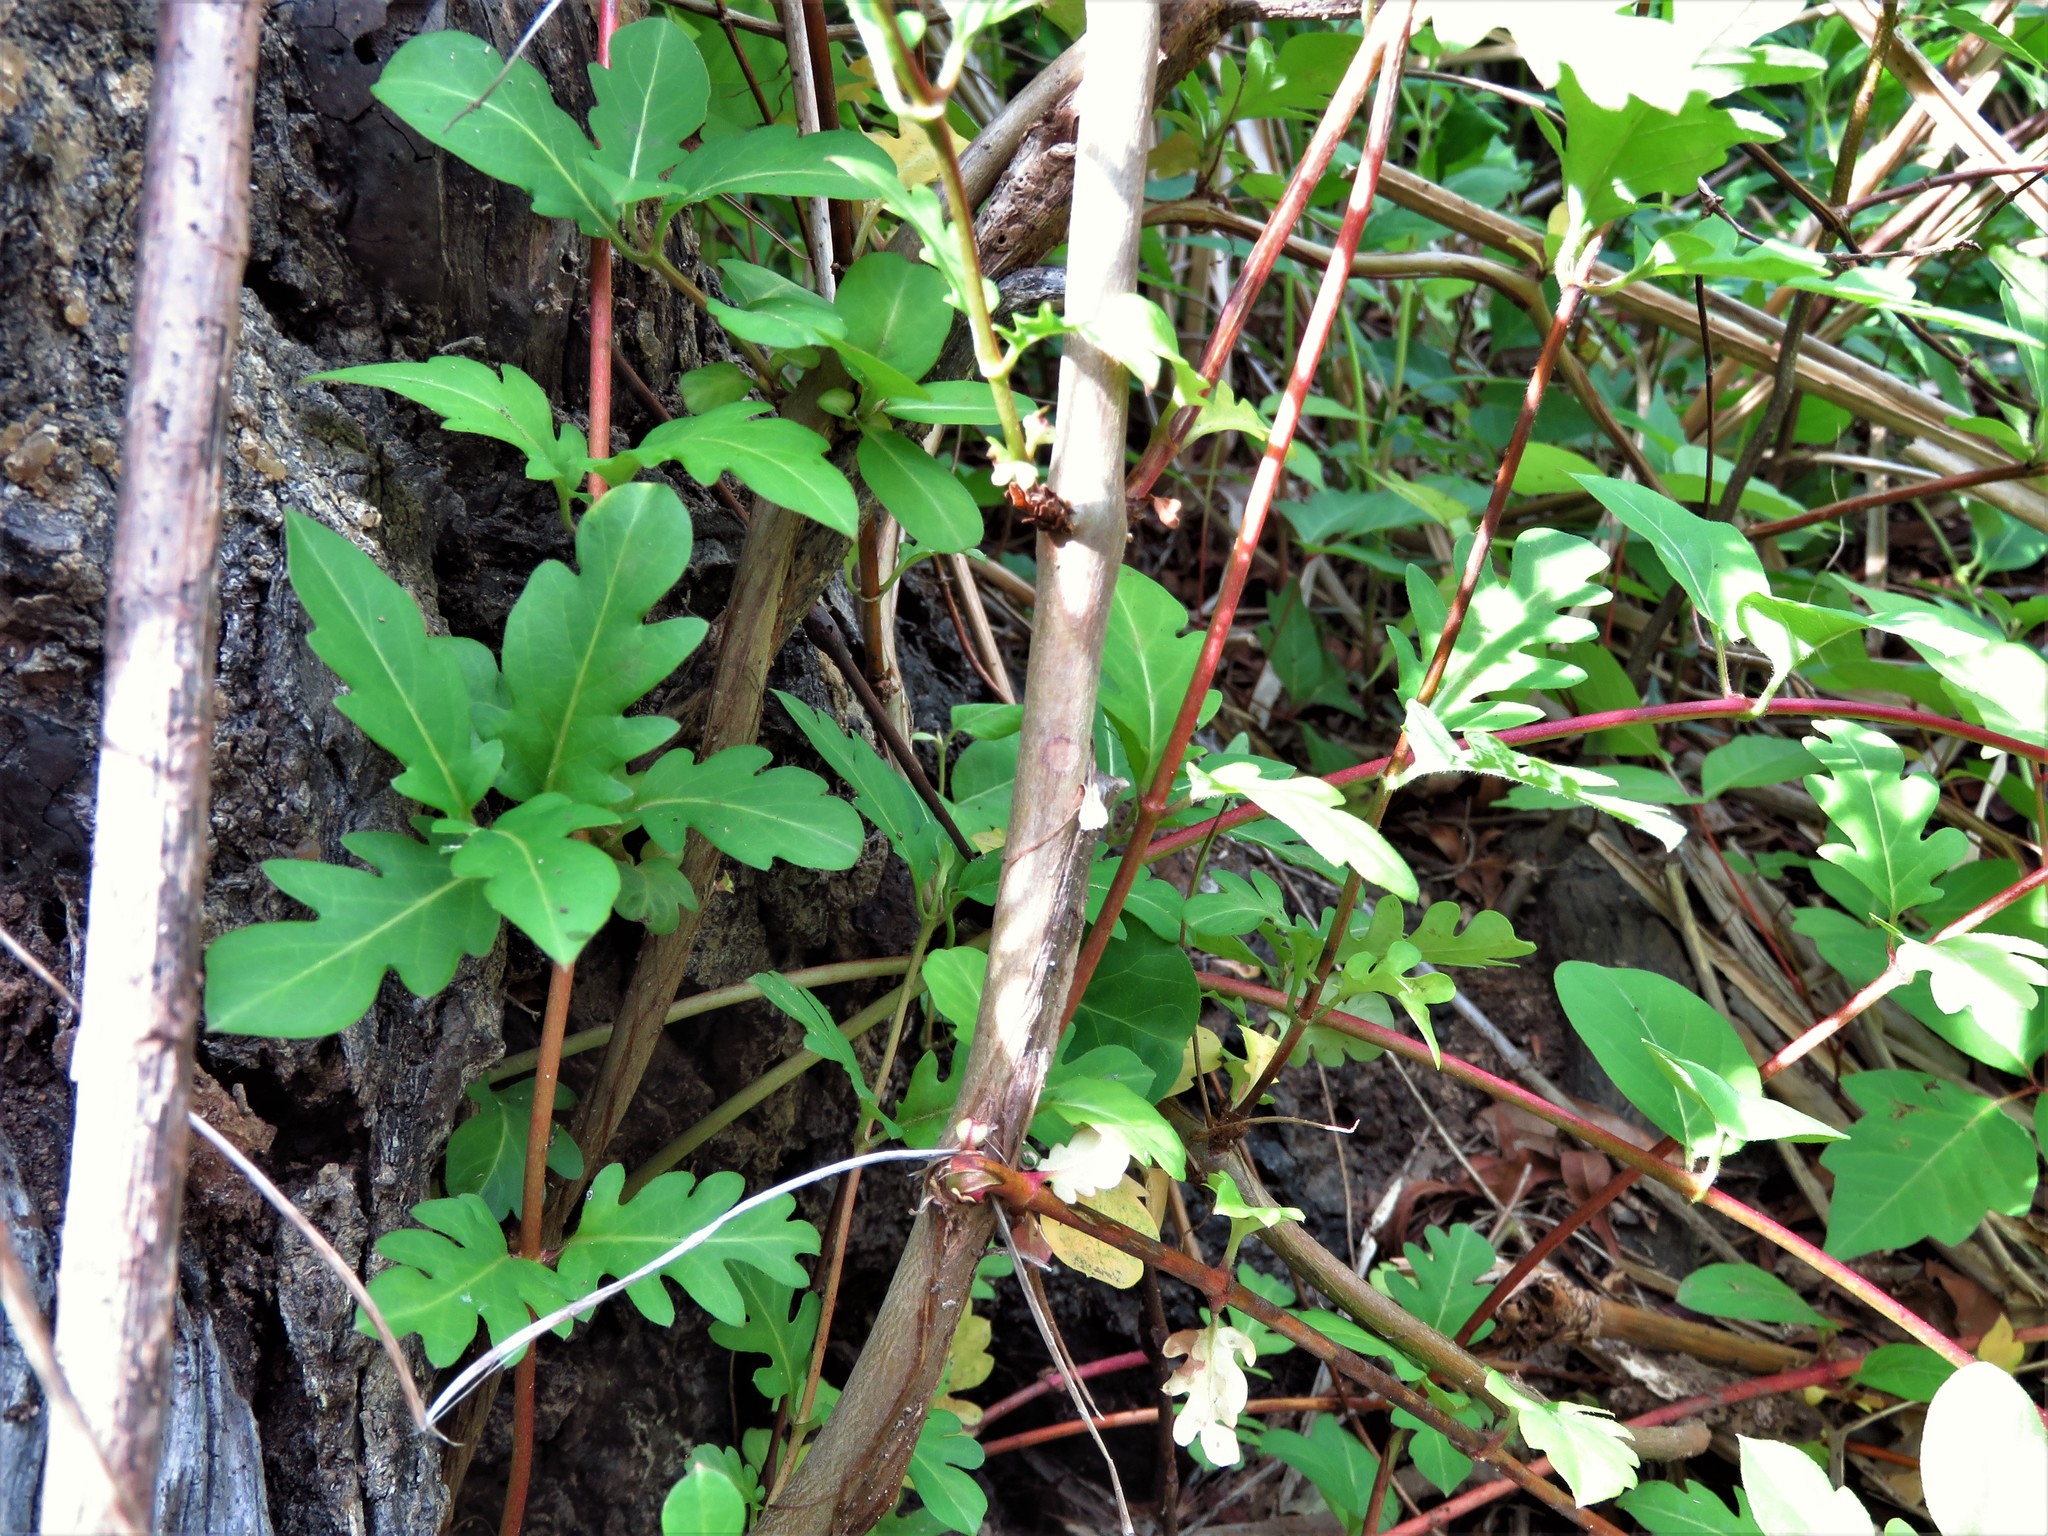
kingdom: Plantae
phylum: Tracheophyta
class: Magnoliopsida
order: Dipsacales
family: Caprifoliaceae
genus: Lonicera
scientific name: Lonicera japonica
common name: Japanese honeysuckle
